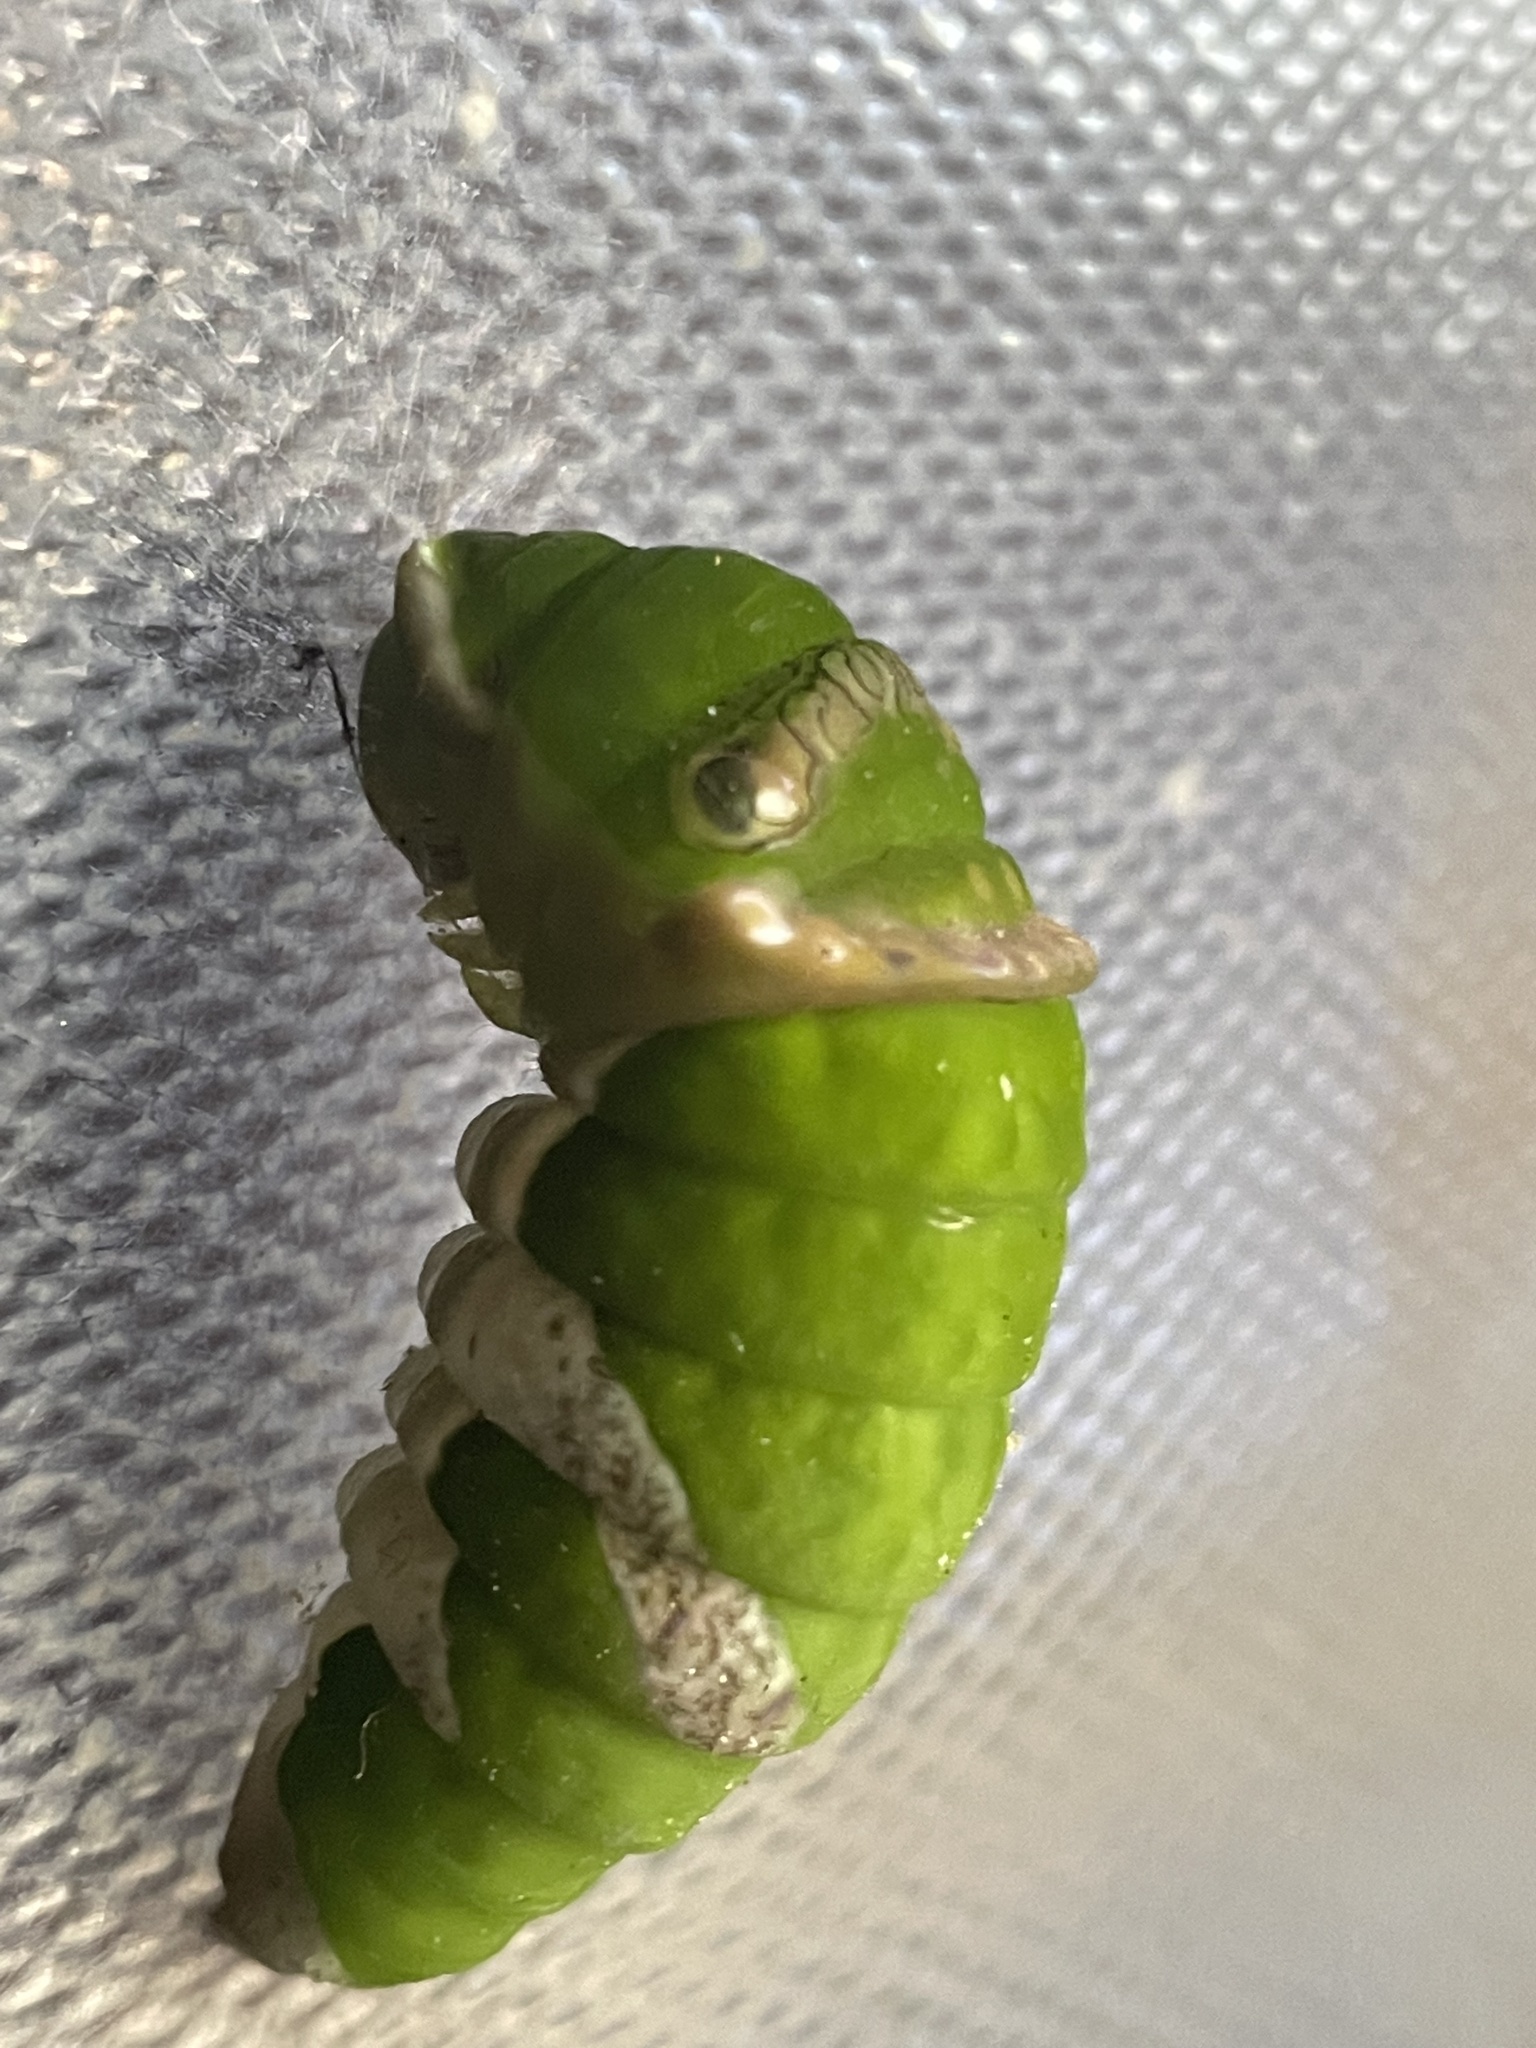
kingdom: Animalia
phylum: Arthropoda
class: Insecta
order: Lepidoptera
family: Papilionidae
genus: Papilio
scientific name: Papilio polytes
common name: Common mormon
